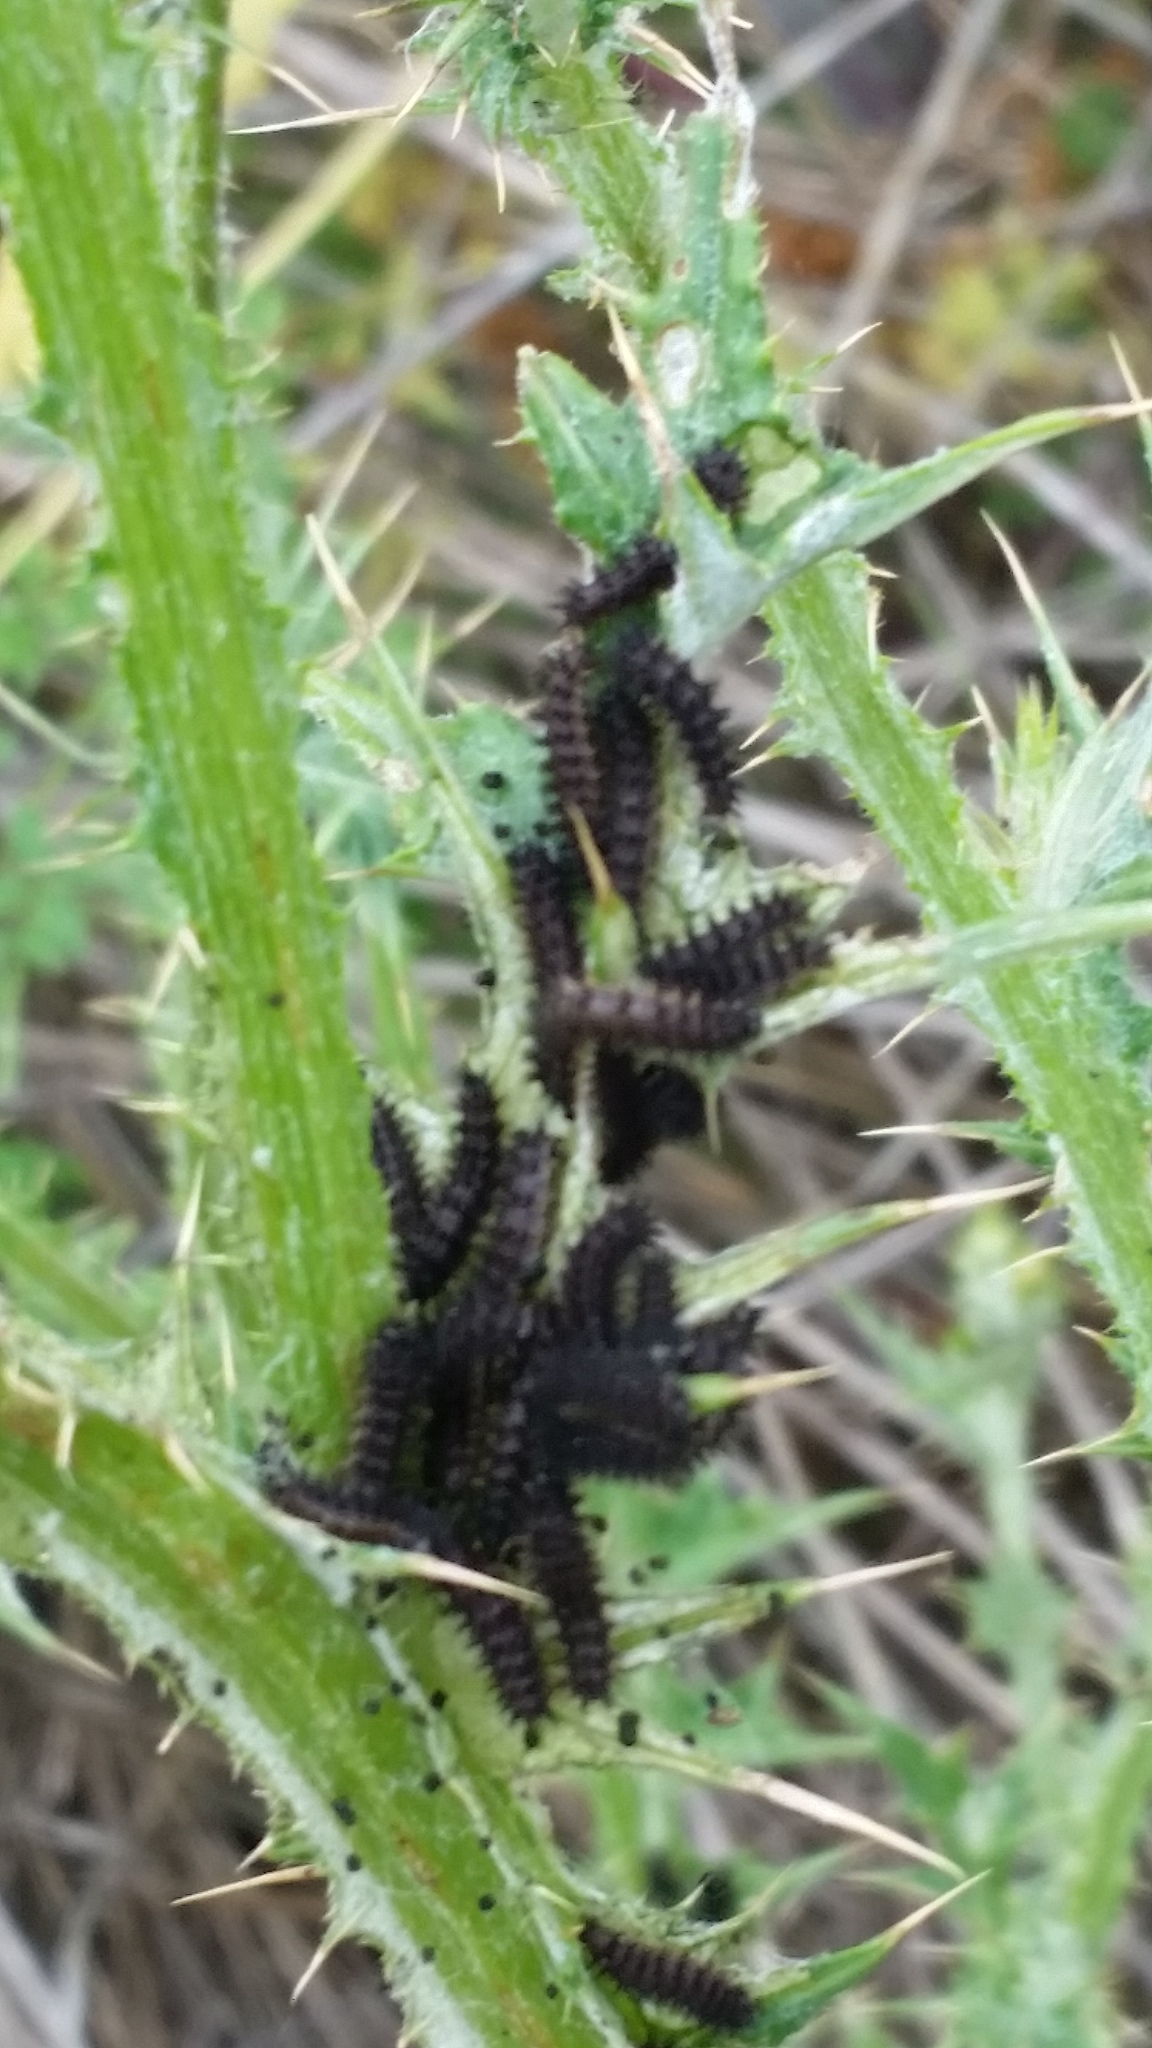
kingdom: Animalia
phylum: Arthropoda
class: Insecta
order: Lepidoptera
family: Nymphalidae
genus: Vanessa
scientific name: Vanessa cardui
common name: Painted lady
